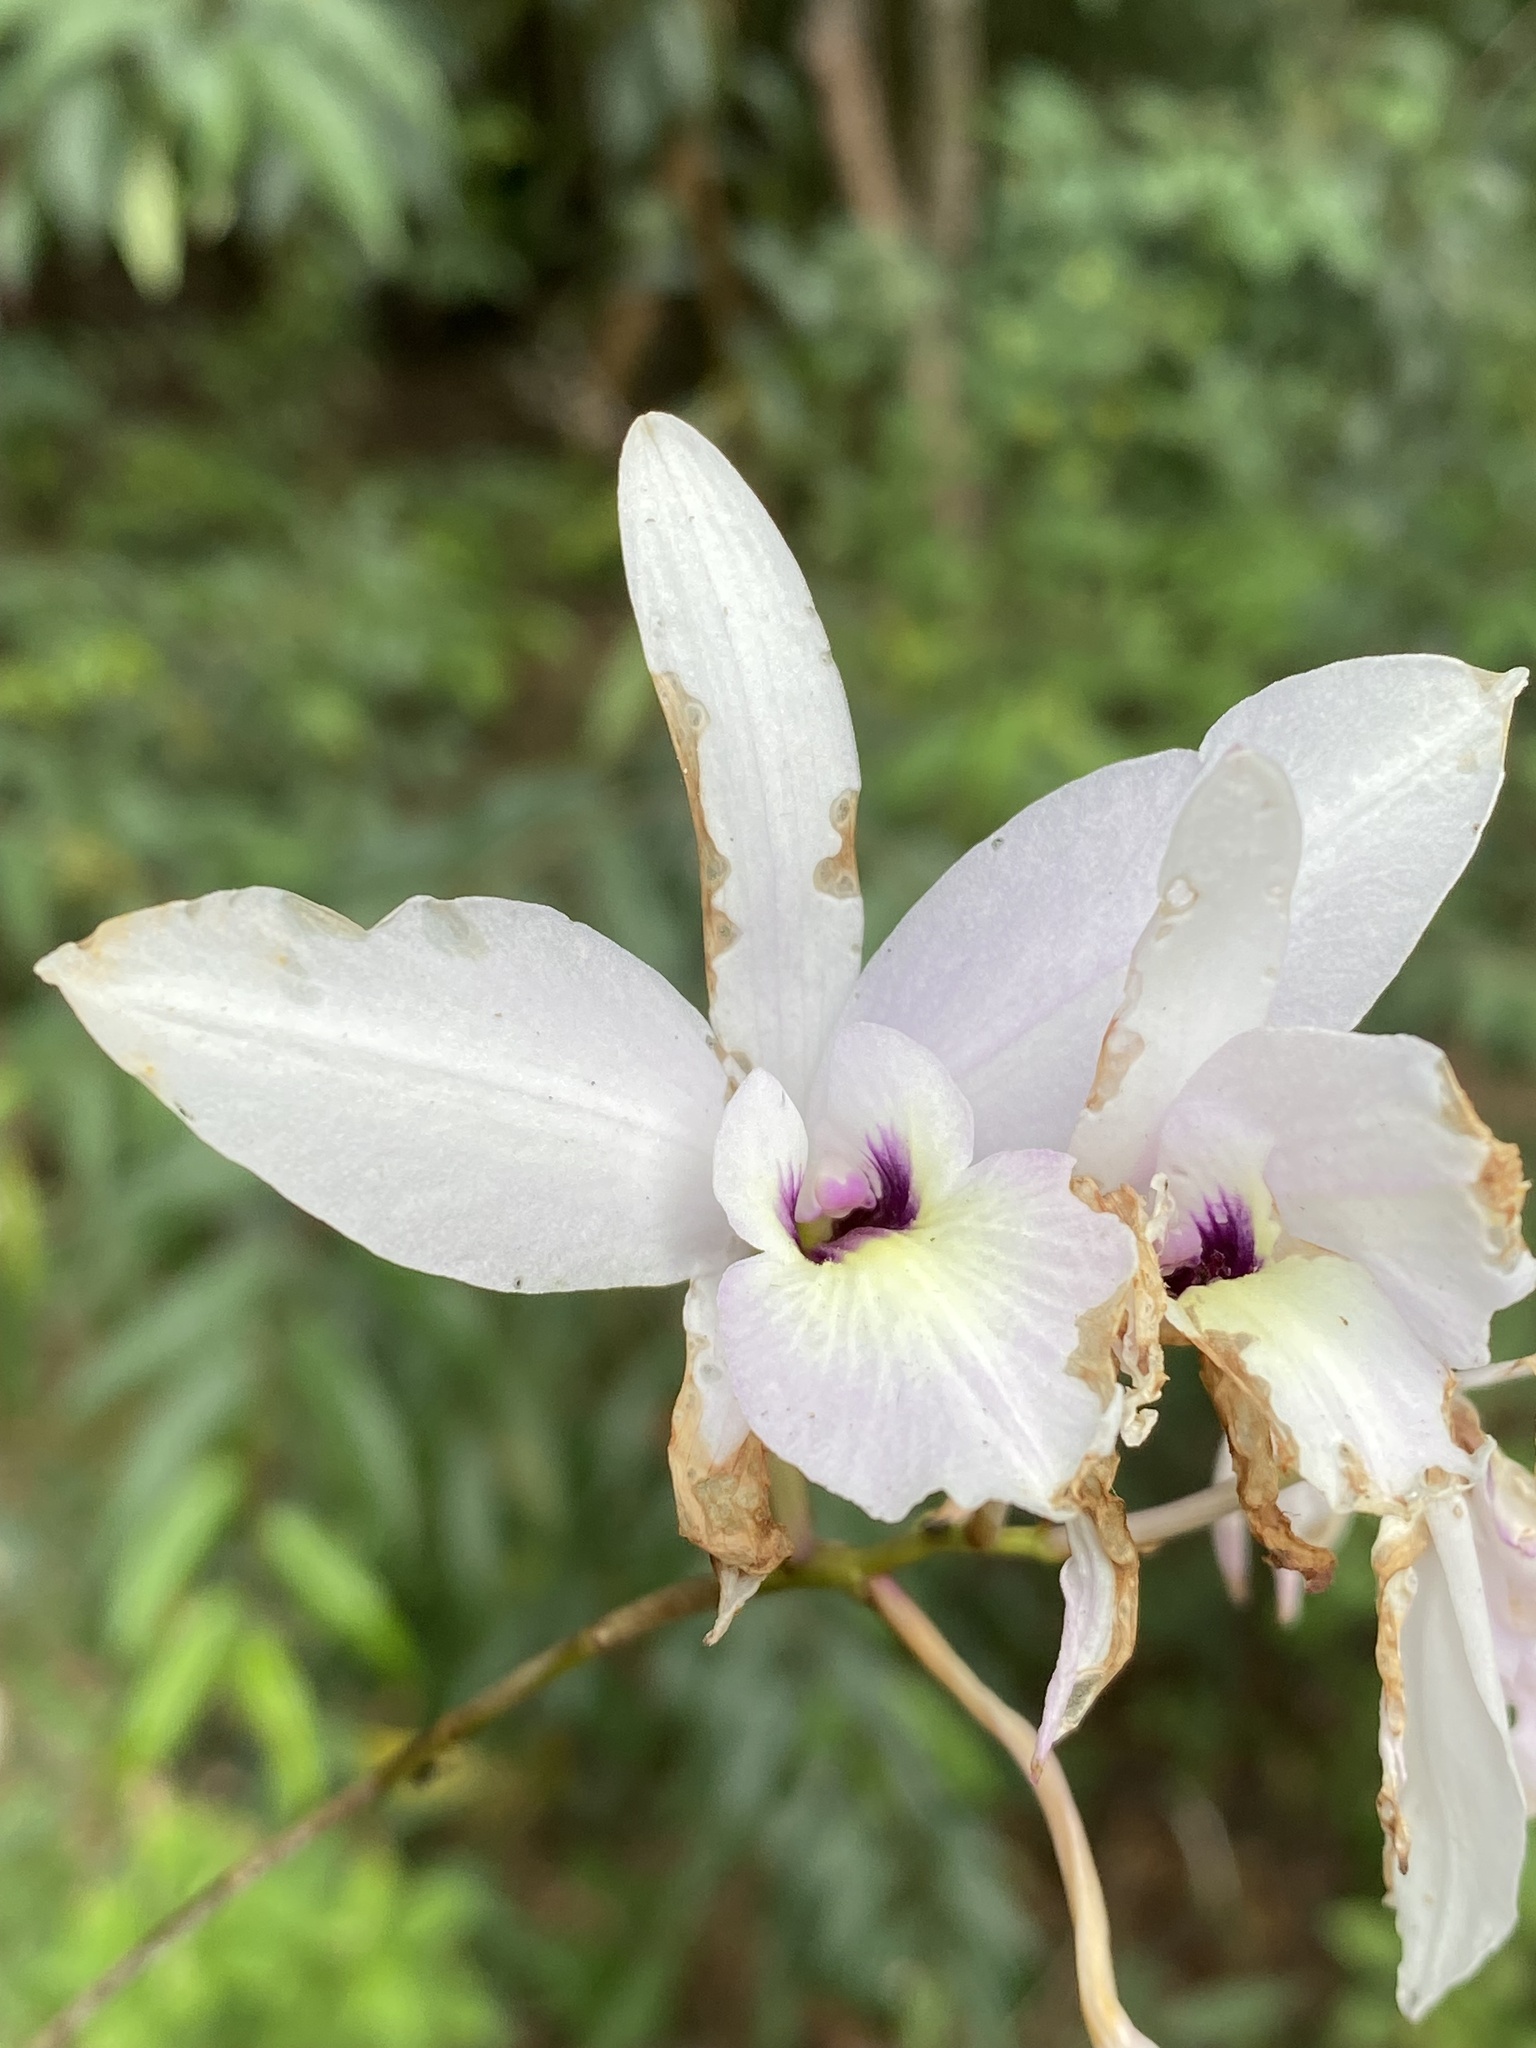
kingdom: Plantae
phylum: Tracheophyta
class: Liliopsida
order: Asparagales
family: Orchidaceae
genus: Laelia
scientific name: Laelia rubescens
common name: Pale laelia
